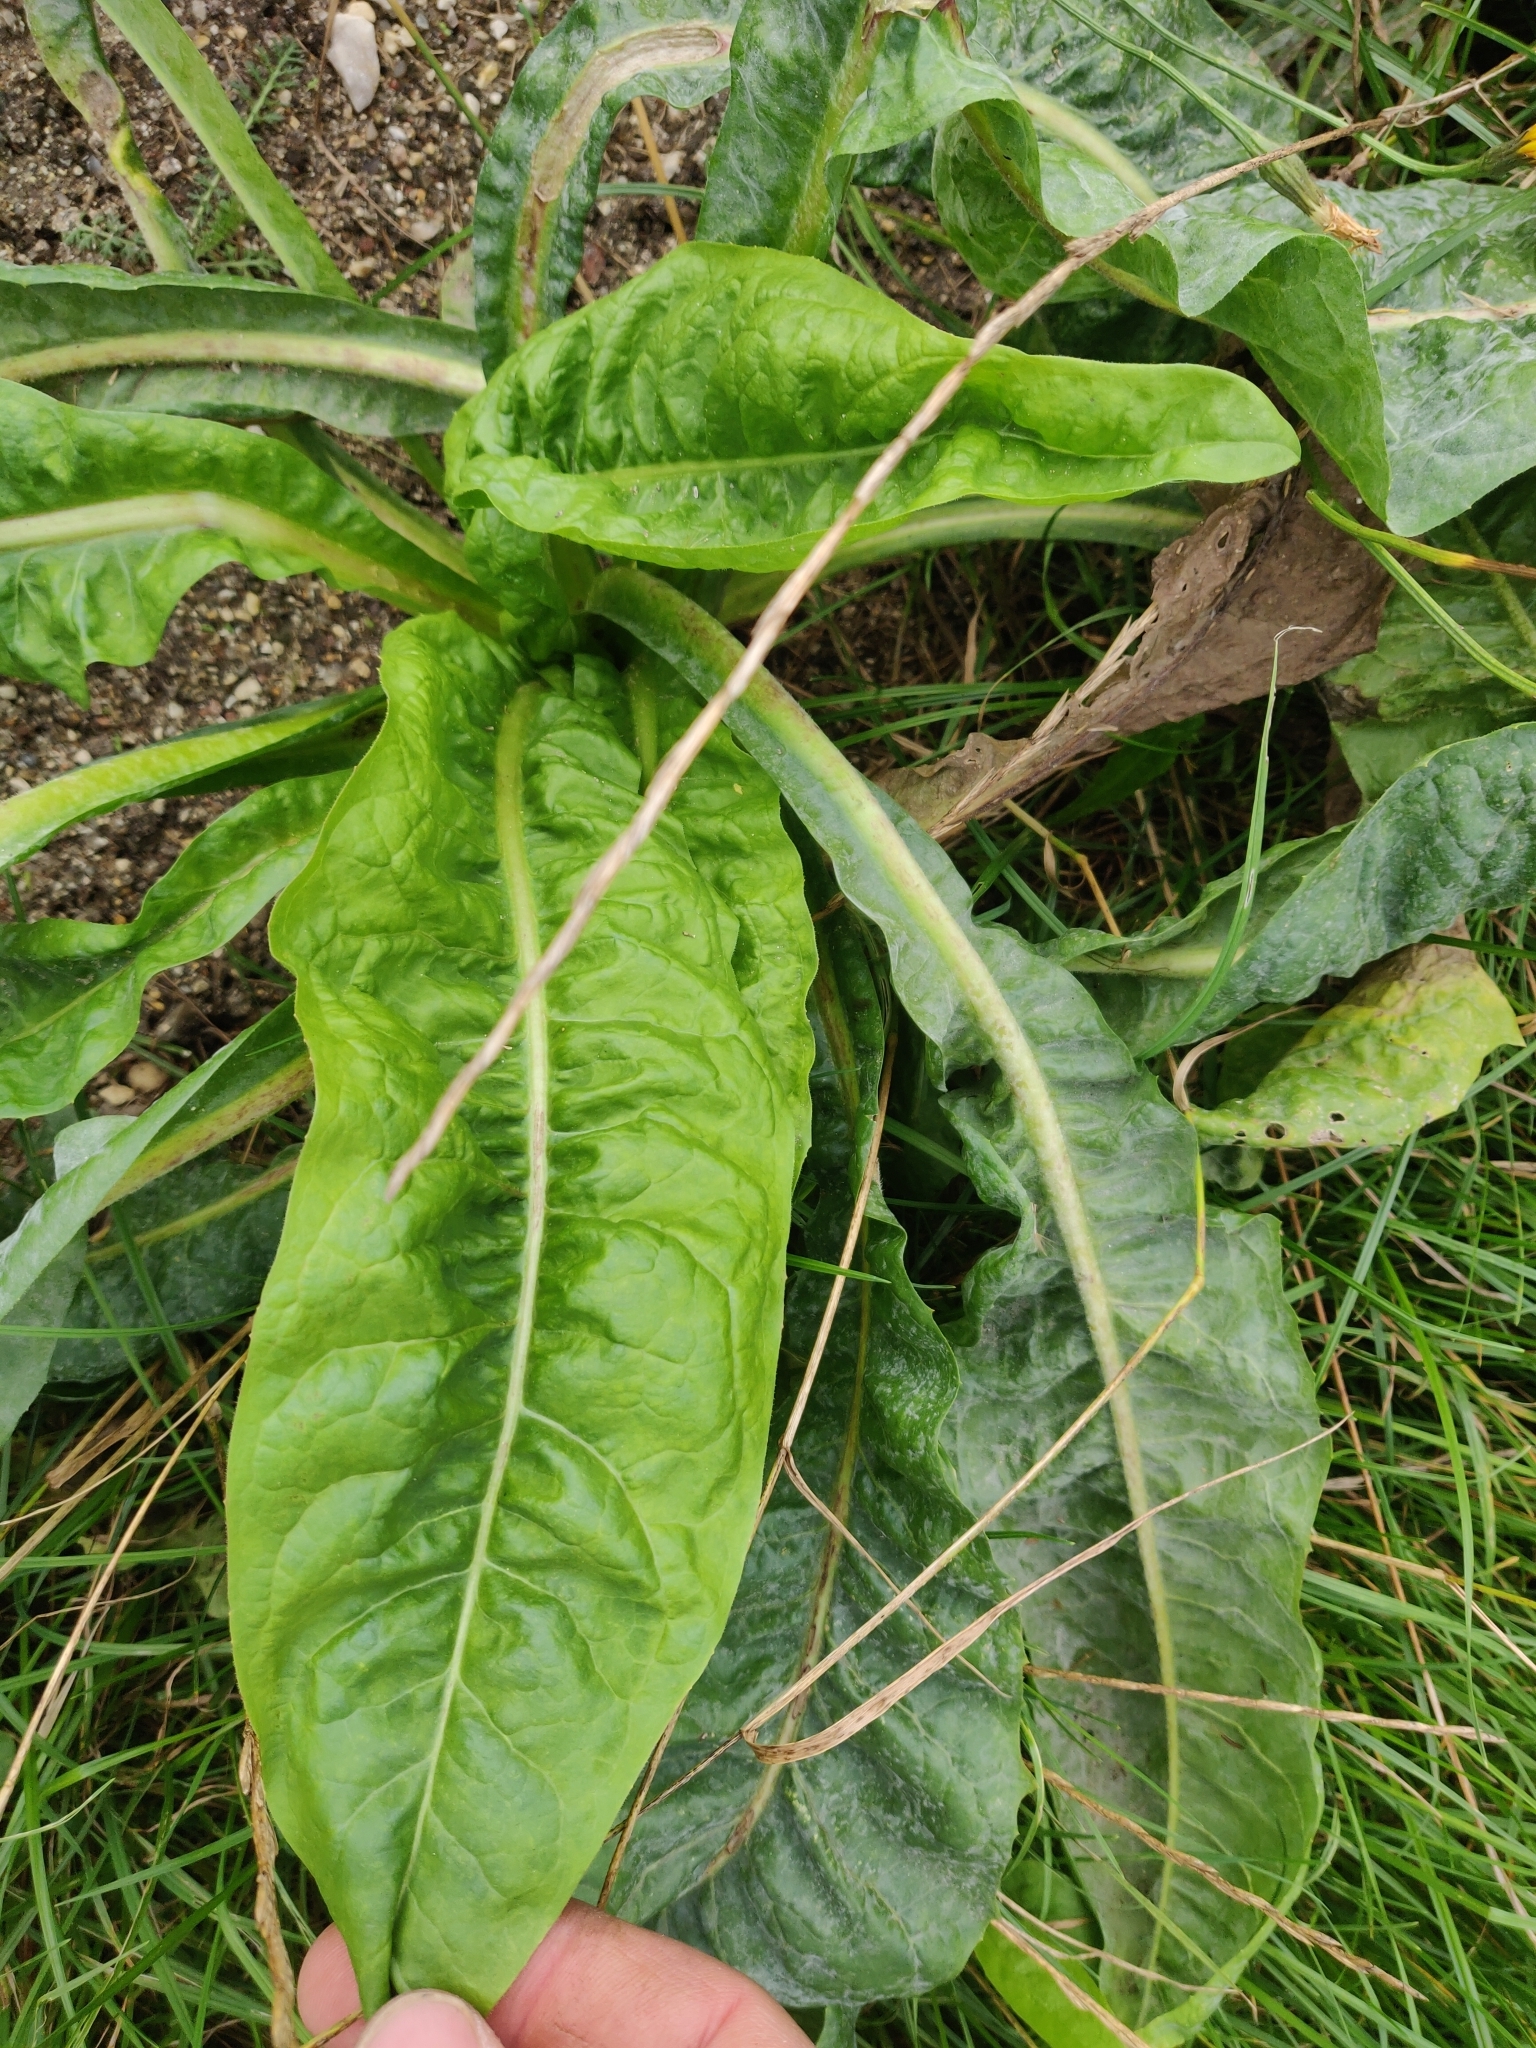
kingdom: Plantae
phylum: Tracheophyta
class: Magnoliopsida
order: Asterales
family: Asteraceae
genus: Cichorium
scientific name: Cichorium intybus
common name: Chicory
